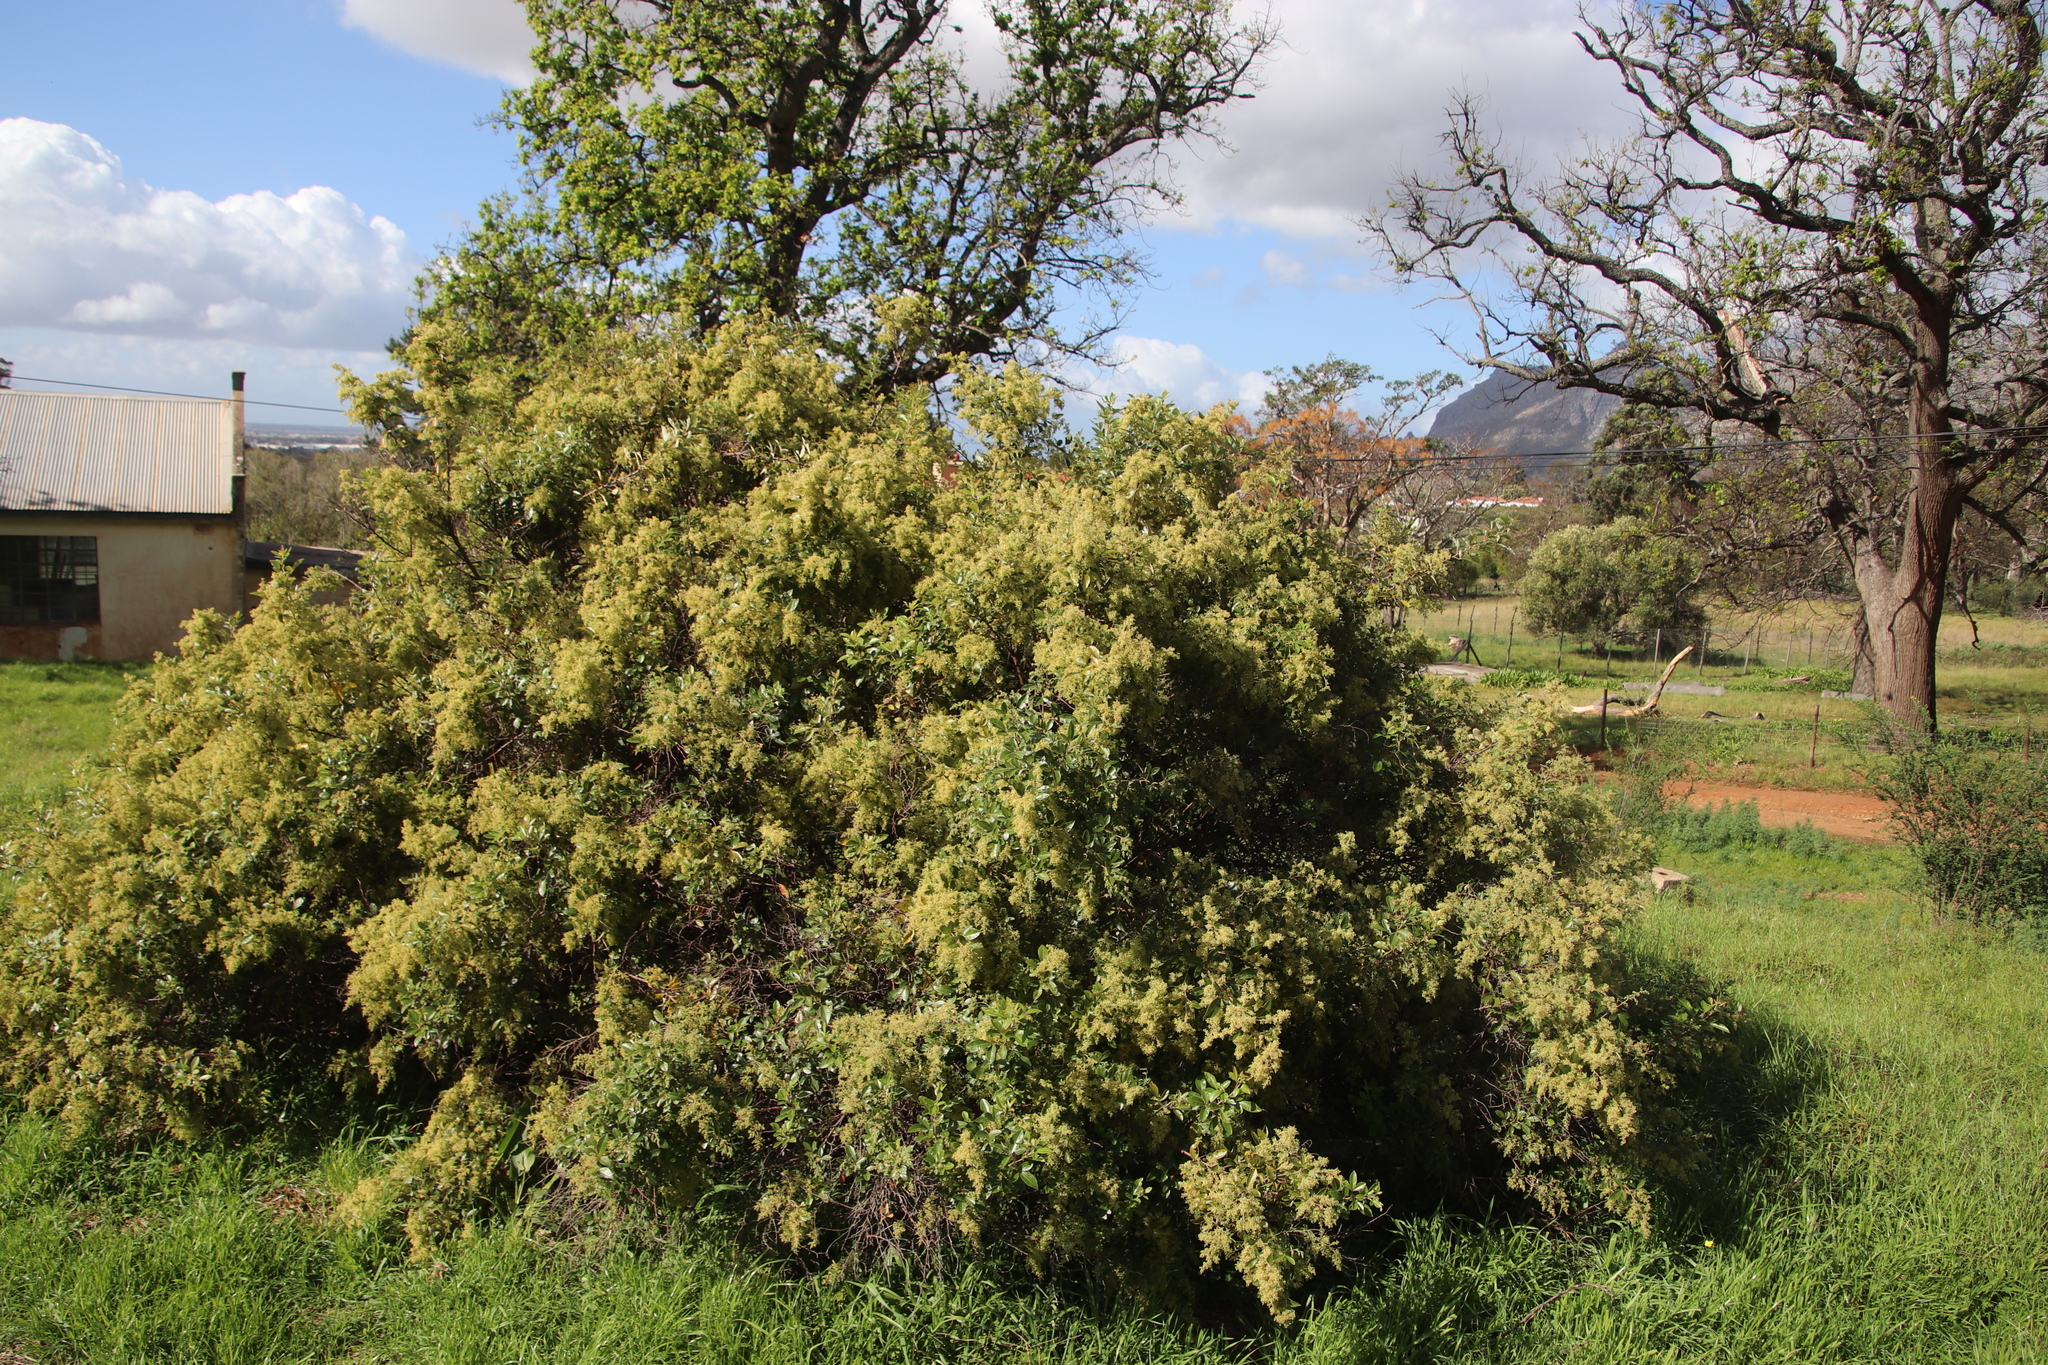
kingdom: Plantae
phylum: Tracheophyta
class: Magnoliopsida
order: Sapindales
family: Anacardiaceae
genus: Searsia
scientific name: Searsia tomentosa
